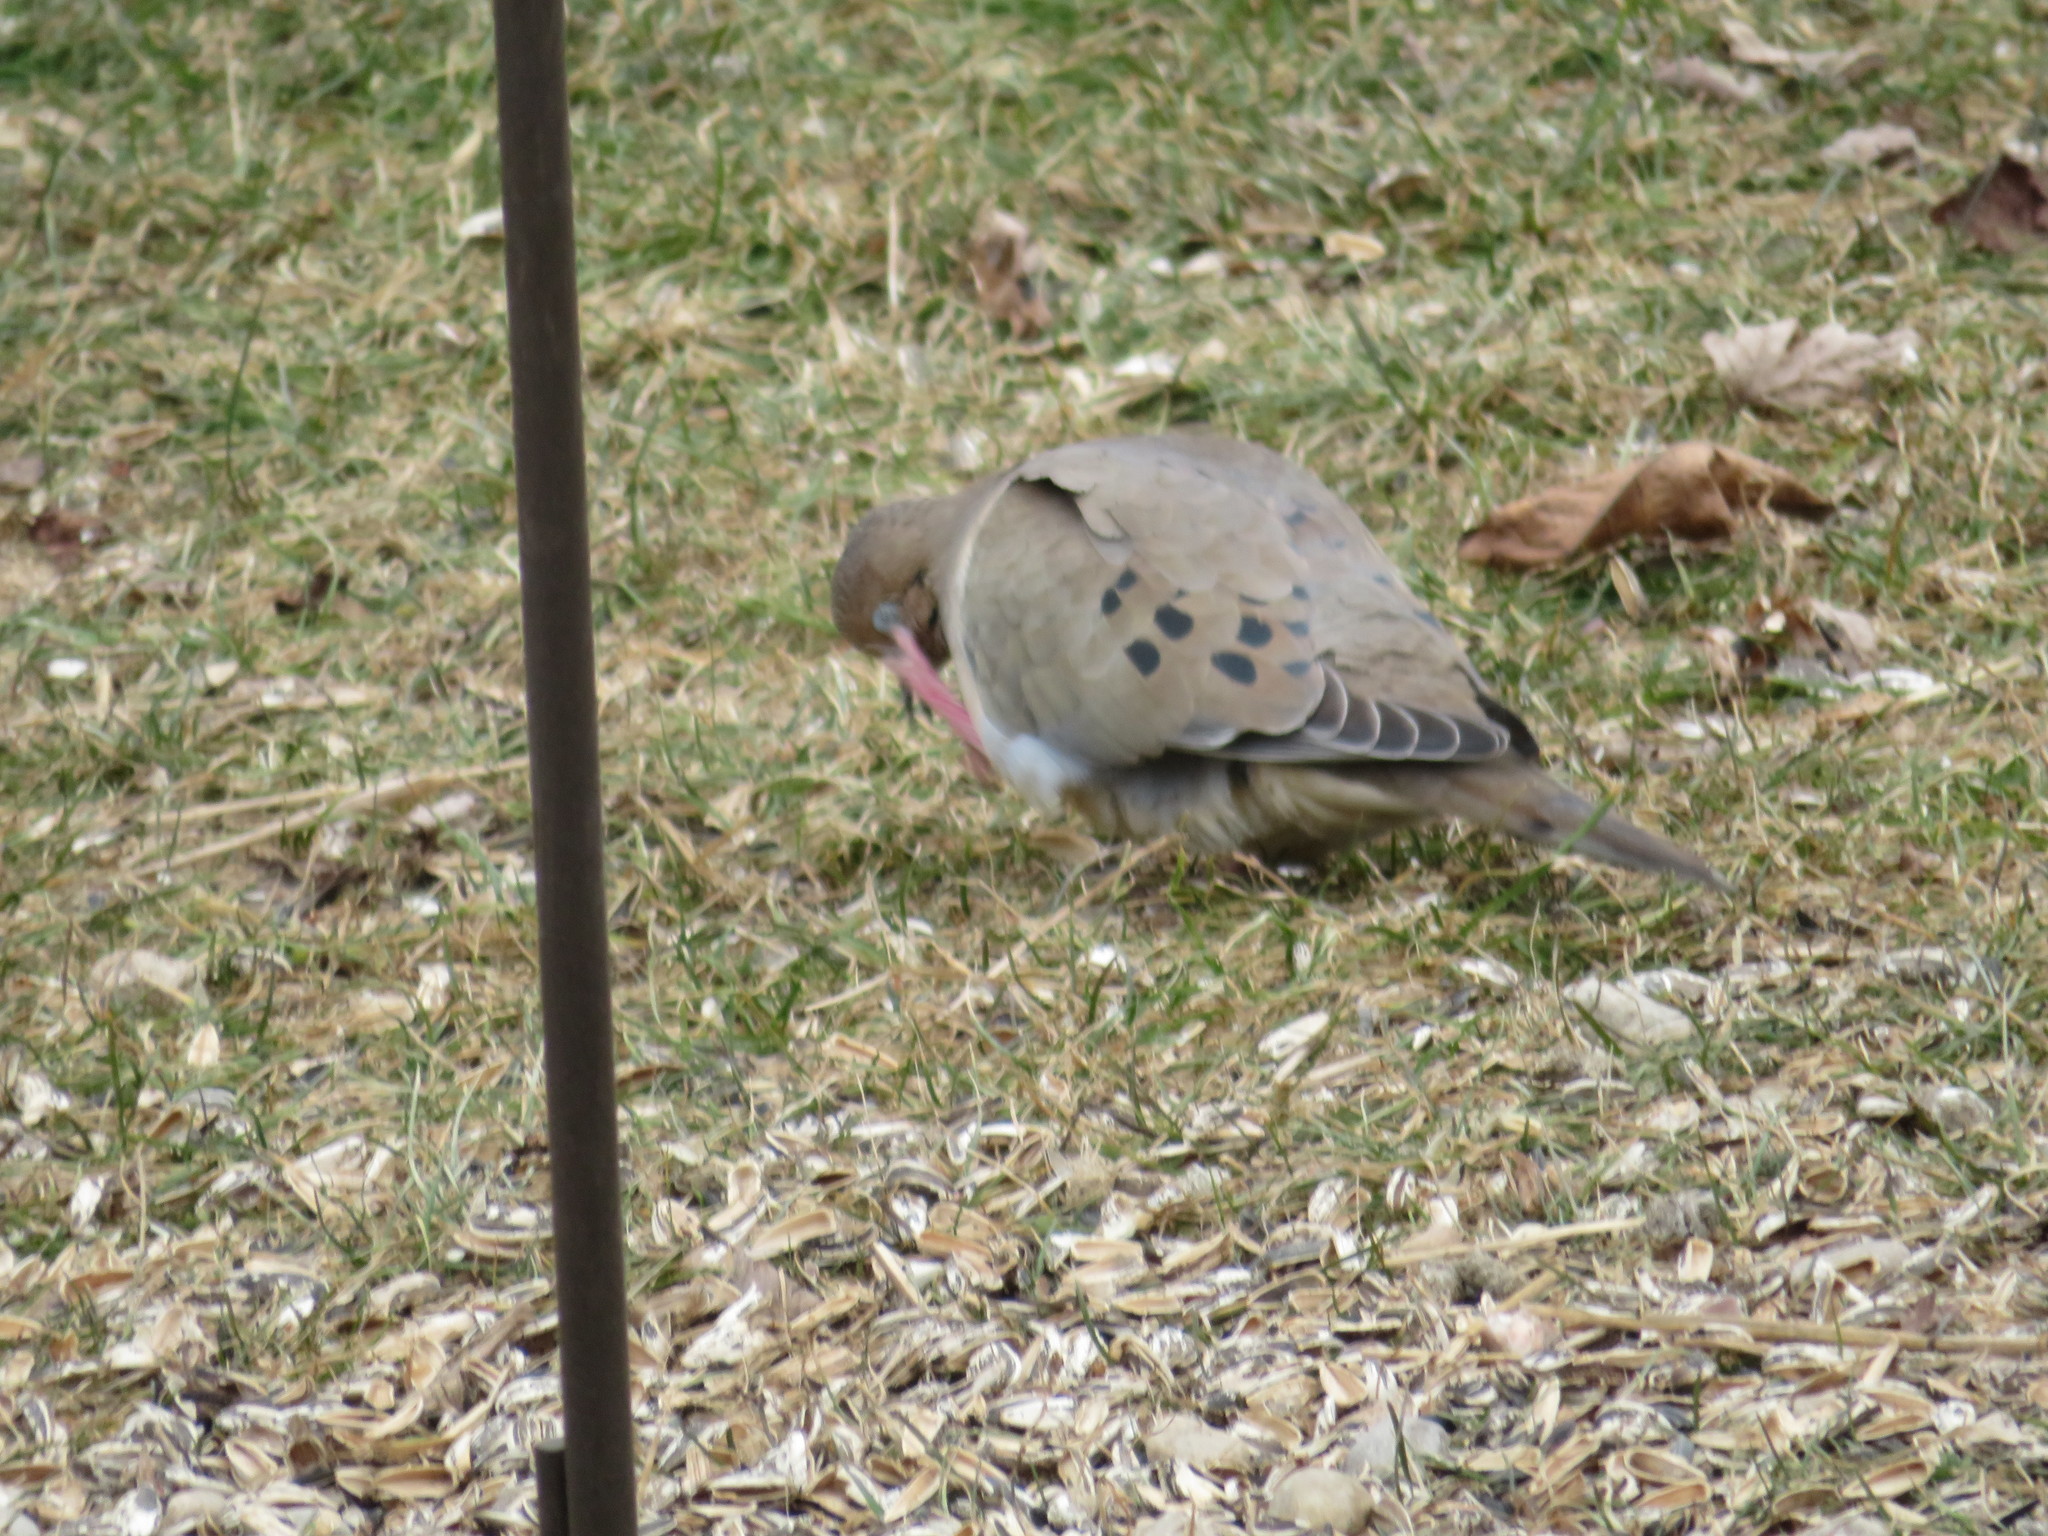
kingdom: Animalia
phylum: Chordata
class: Aves
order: Columbiformes
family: Columbidae
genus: Zenaida
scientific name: Zenaida macroura
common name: Mourning dove
